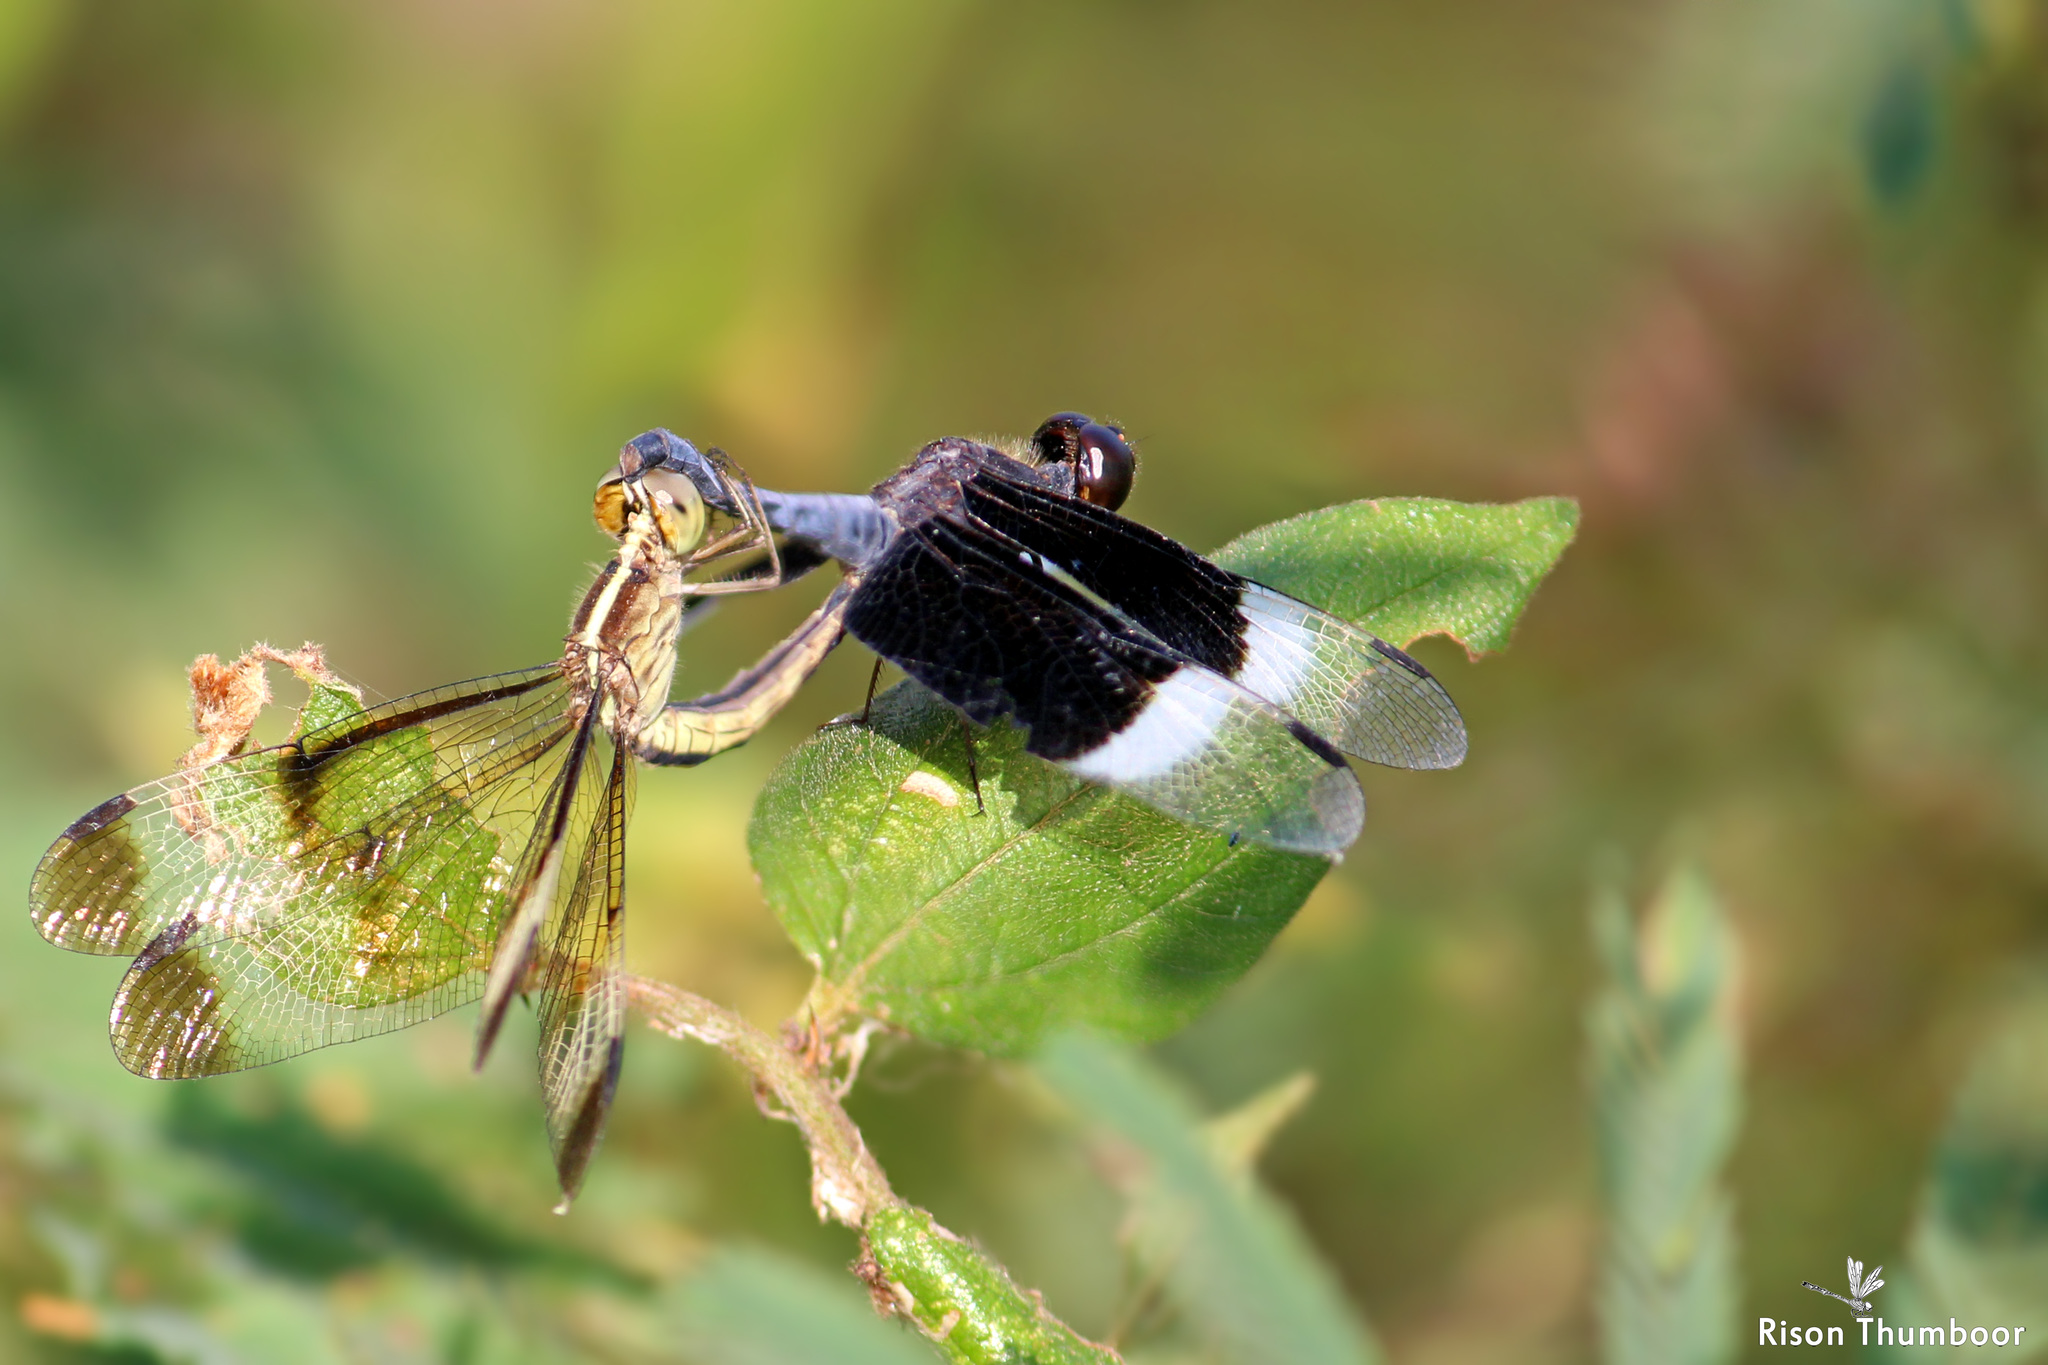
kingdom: Animalia
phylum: Arthropoda
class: Insecta
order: Odonata
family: Libellulidae
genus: Neurothemis
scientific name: Neurothemis tullia
